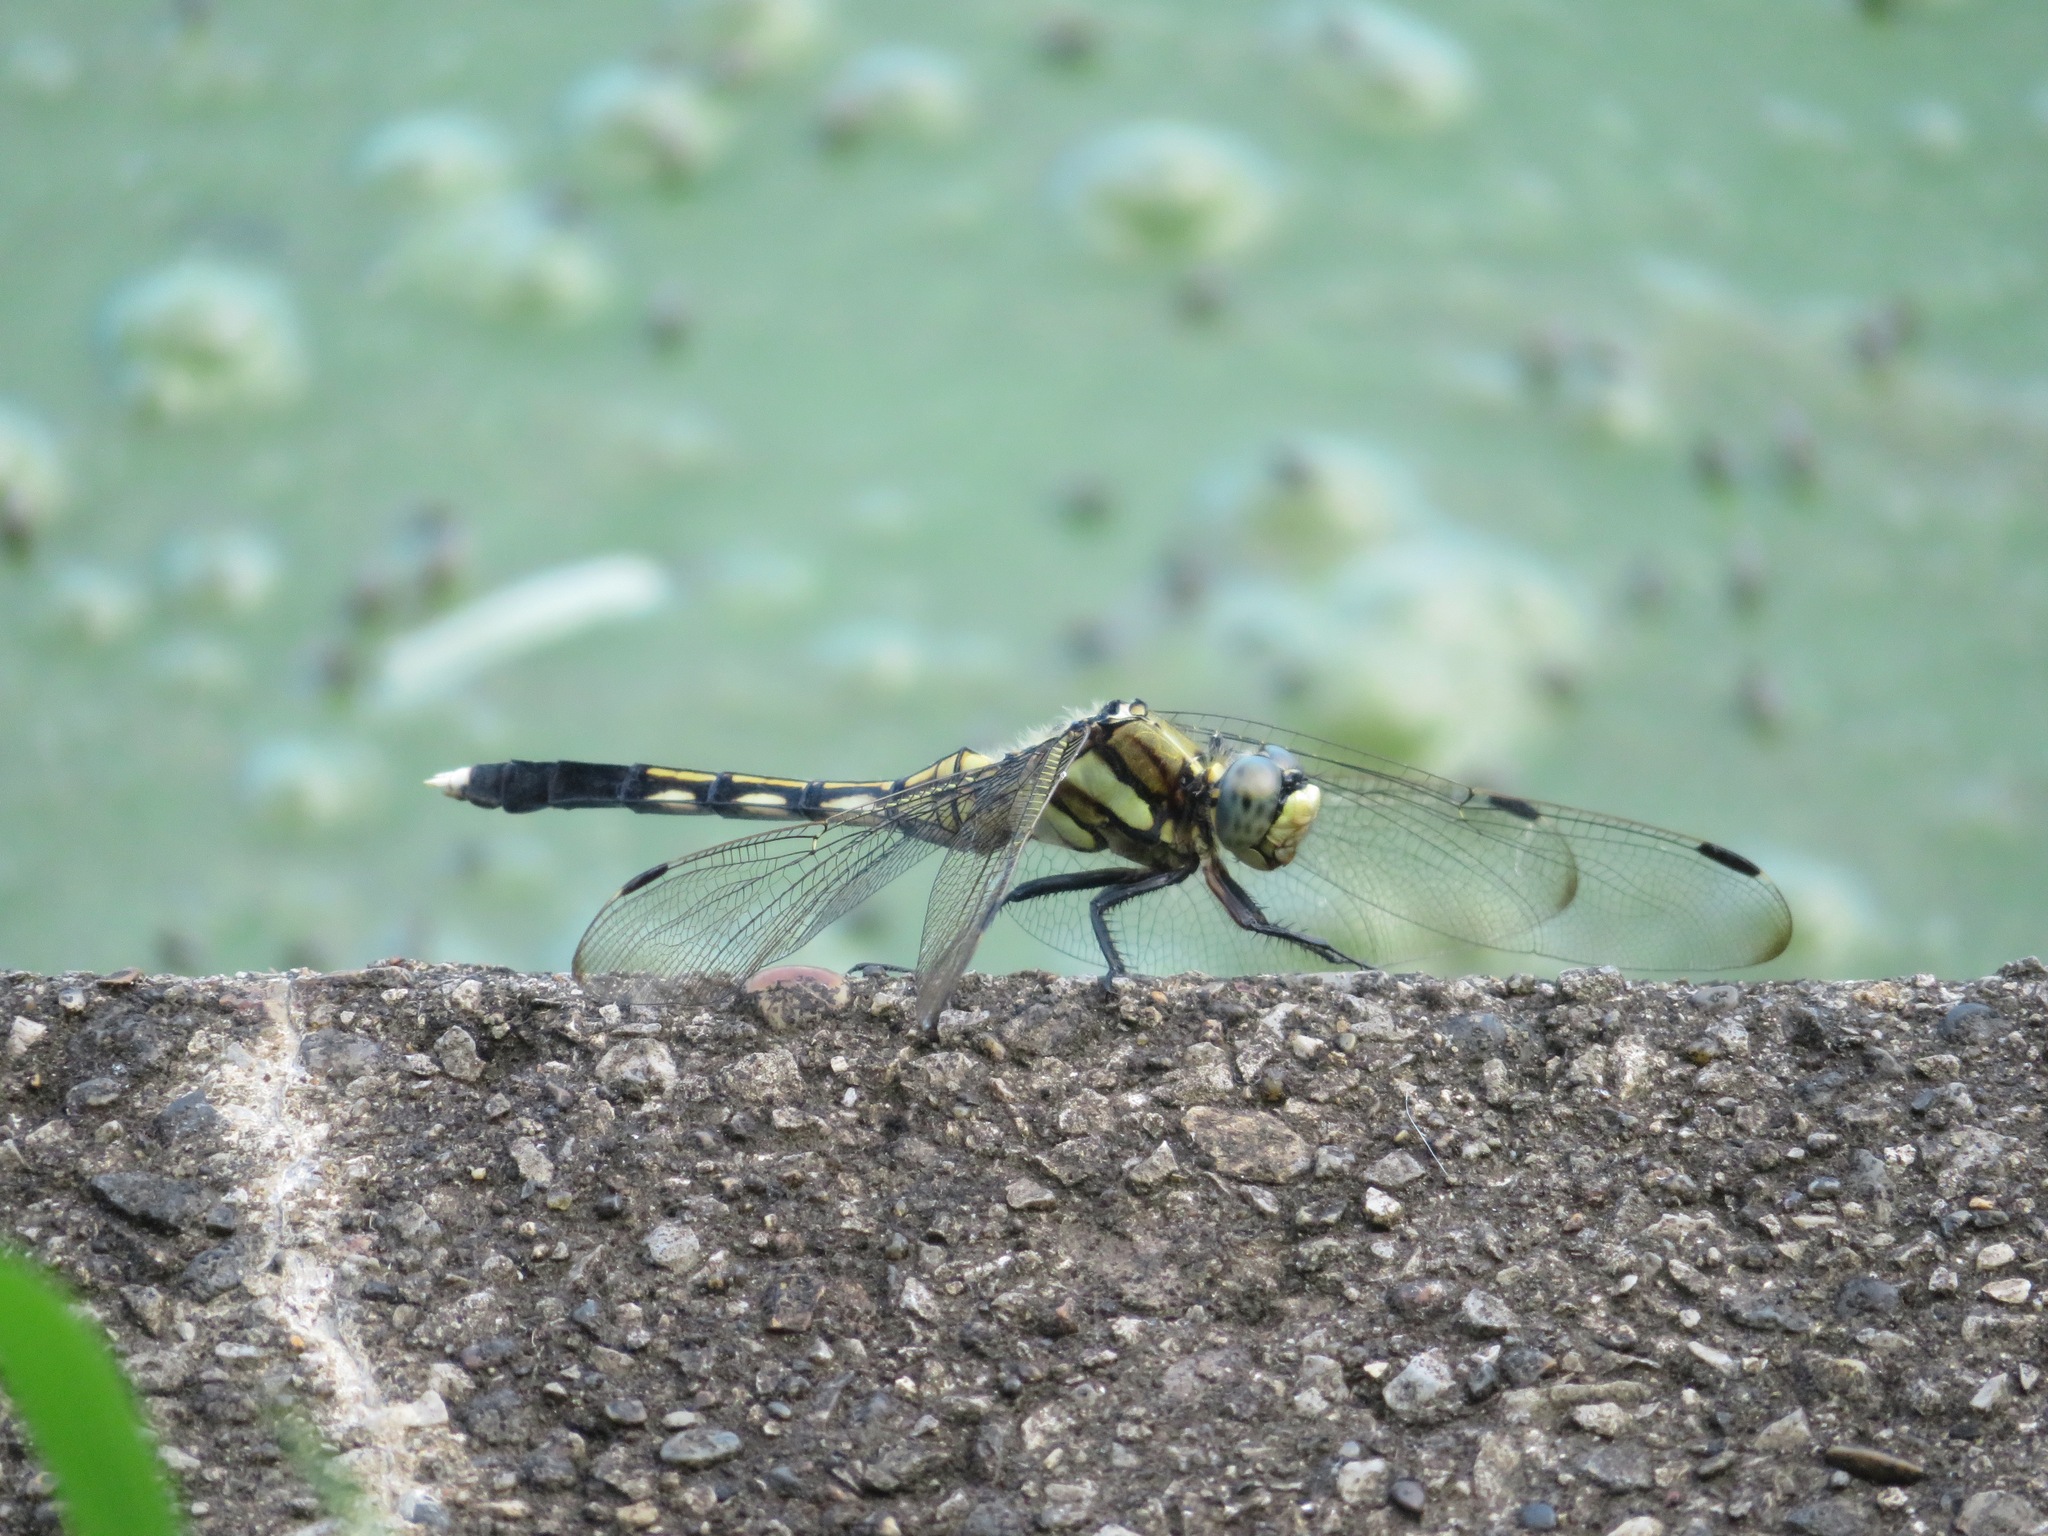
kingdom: Animalia
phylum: Arthropoda
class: Insecta
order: Odonata
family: Libellulidae
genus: Orthetrum
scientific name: Orthetrum albistylum
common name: White-tailed skimmer
